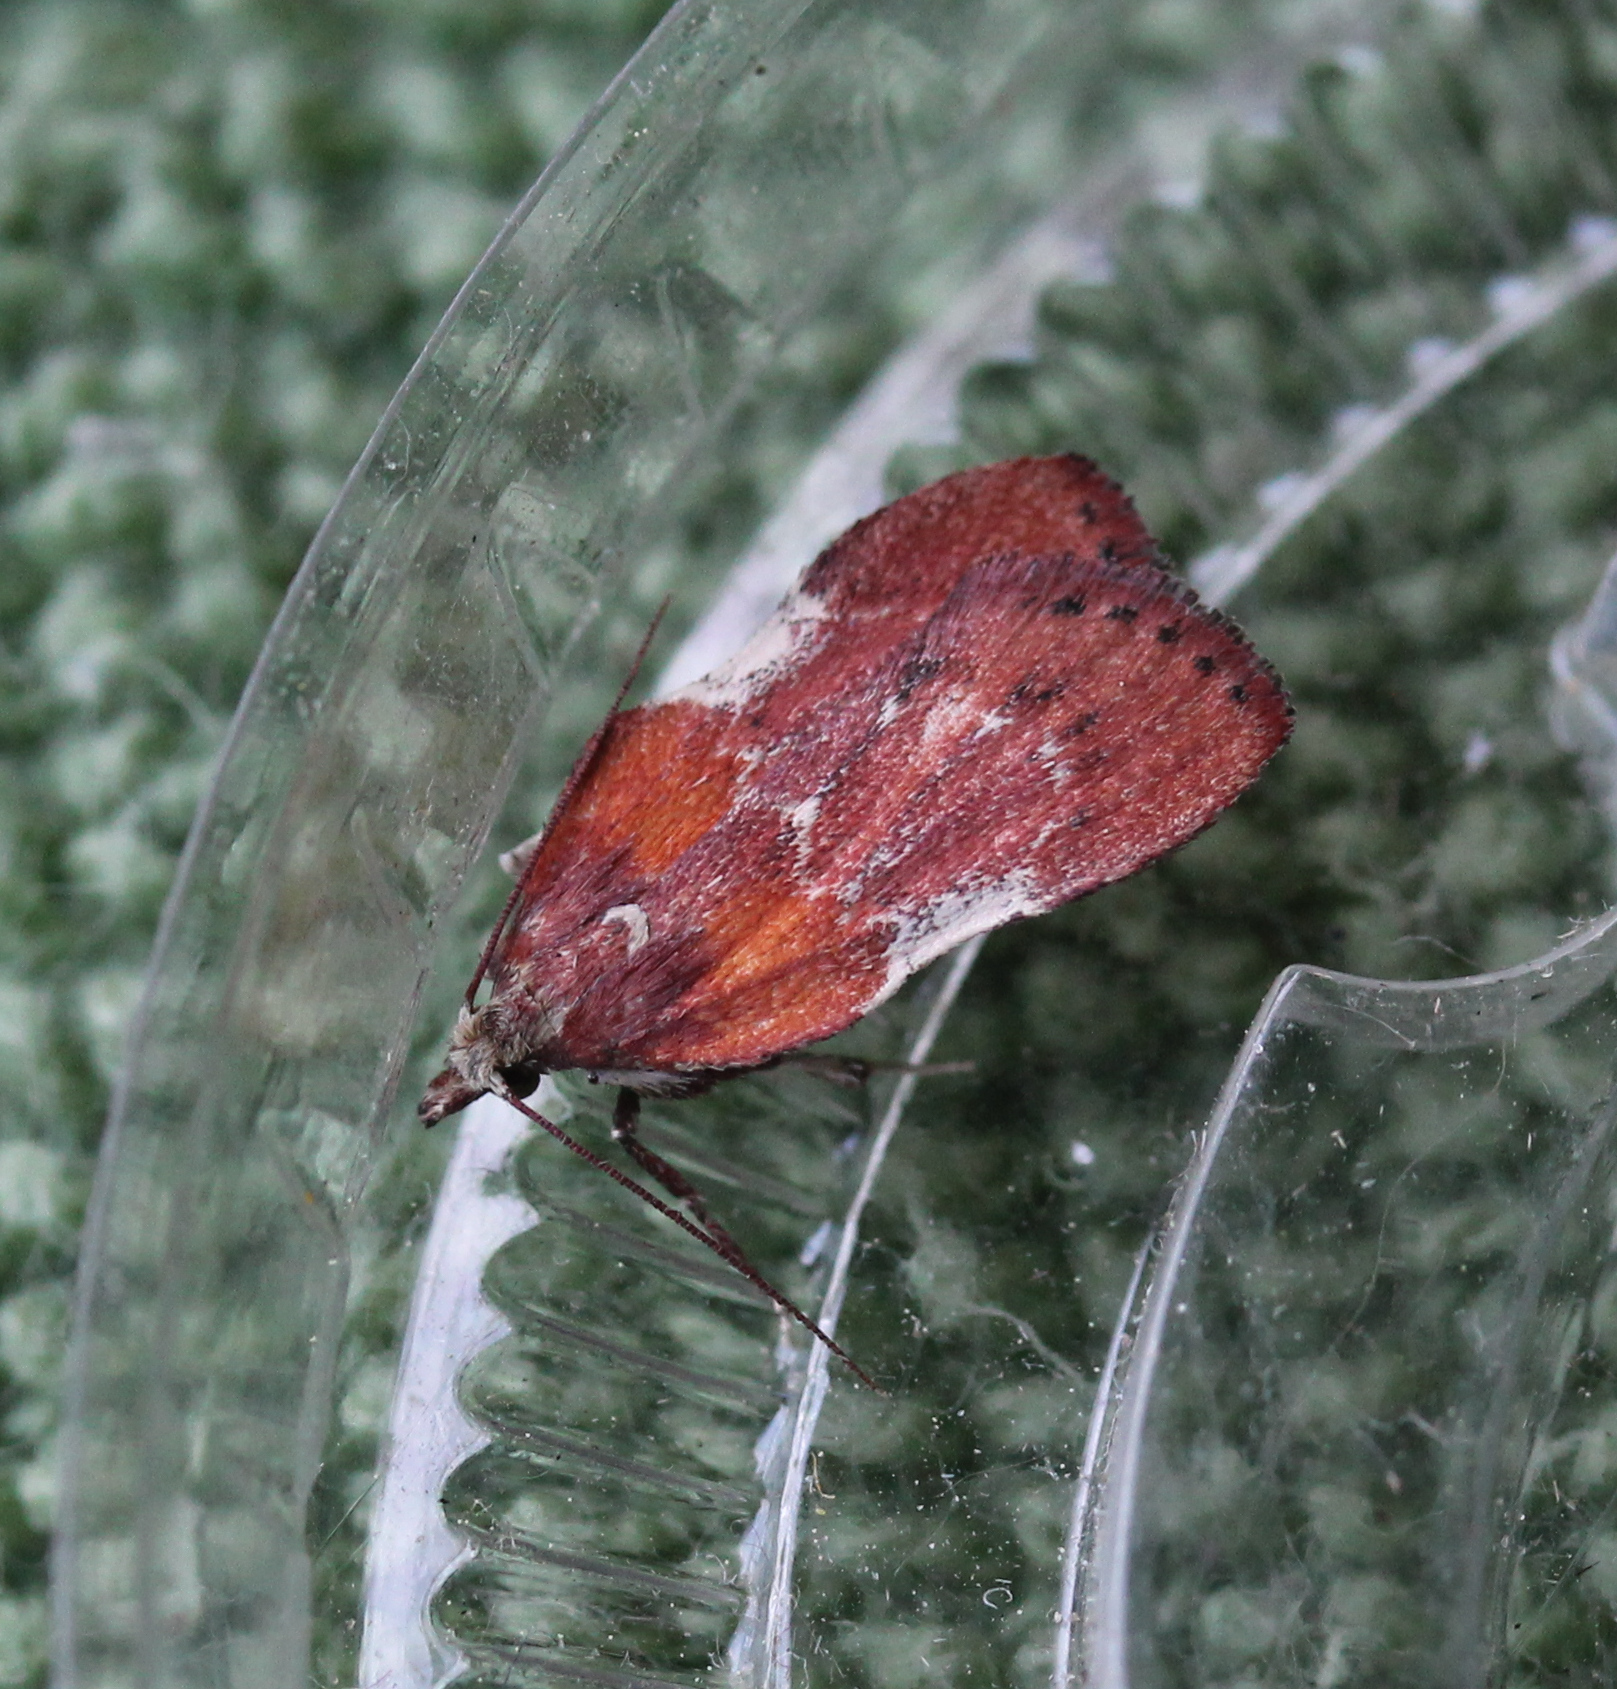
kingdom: Animalia
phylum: Arthropoda
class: Insecta
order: Lepidoptera
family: Pyralidae
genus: Galasa
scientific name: Galasa nigrinodis
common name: Boxwood leaftier moth
